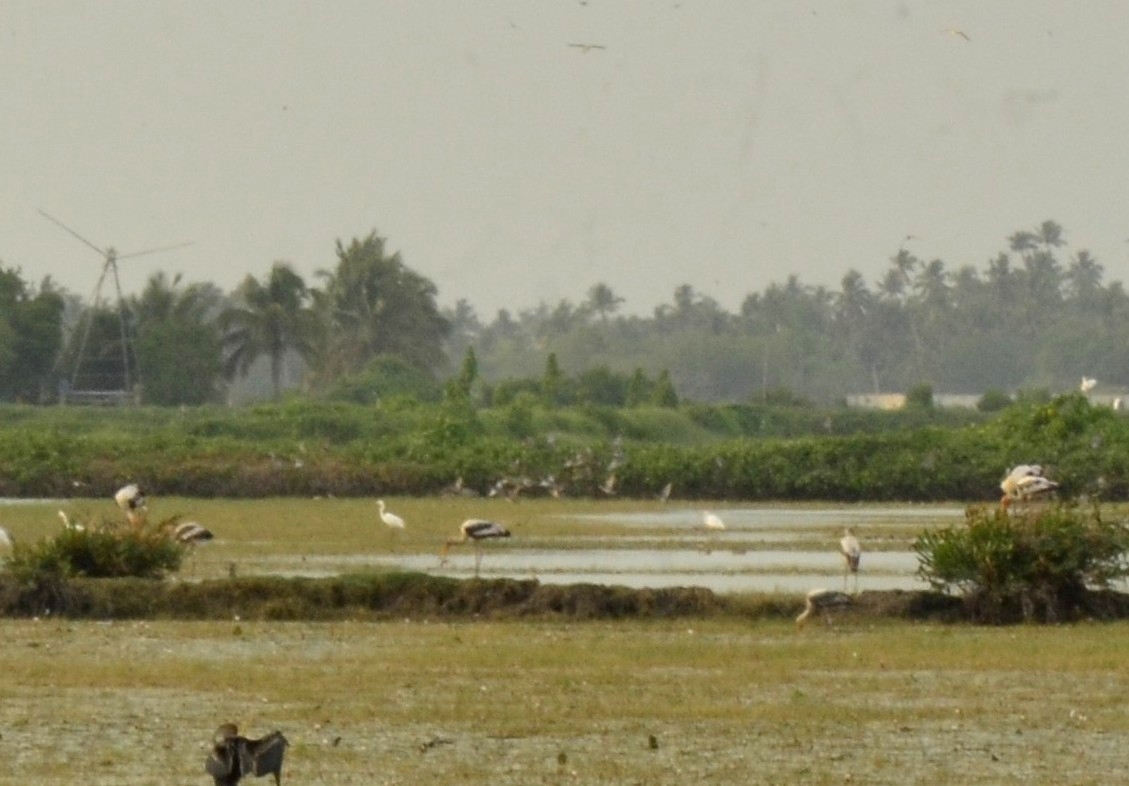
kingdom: Animalia
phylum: Chordata
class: Aves
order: Ciconiiformes
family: Ciconiidae
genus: Mycteria
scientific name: Mycteria leucocephala
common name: Painted stork
